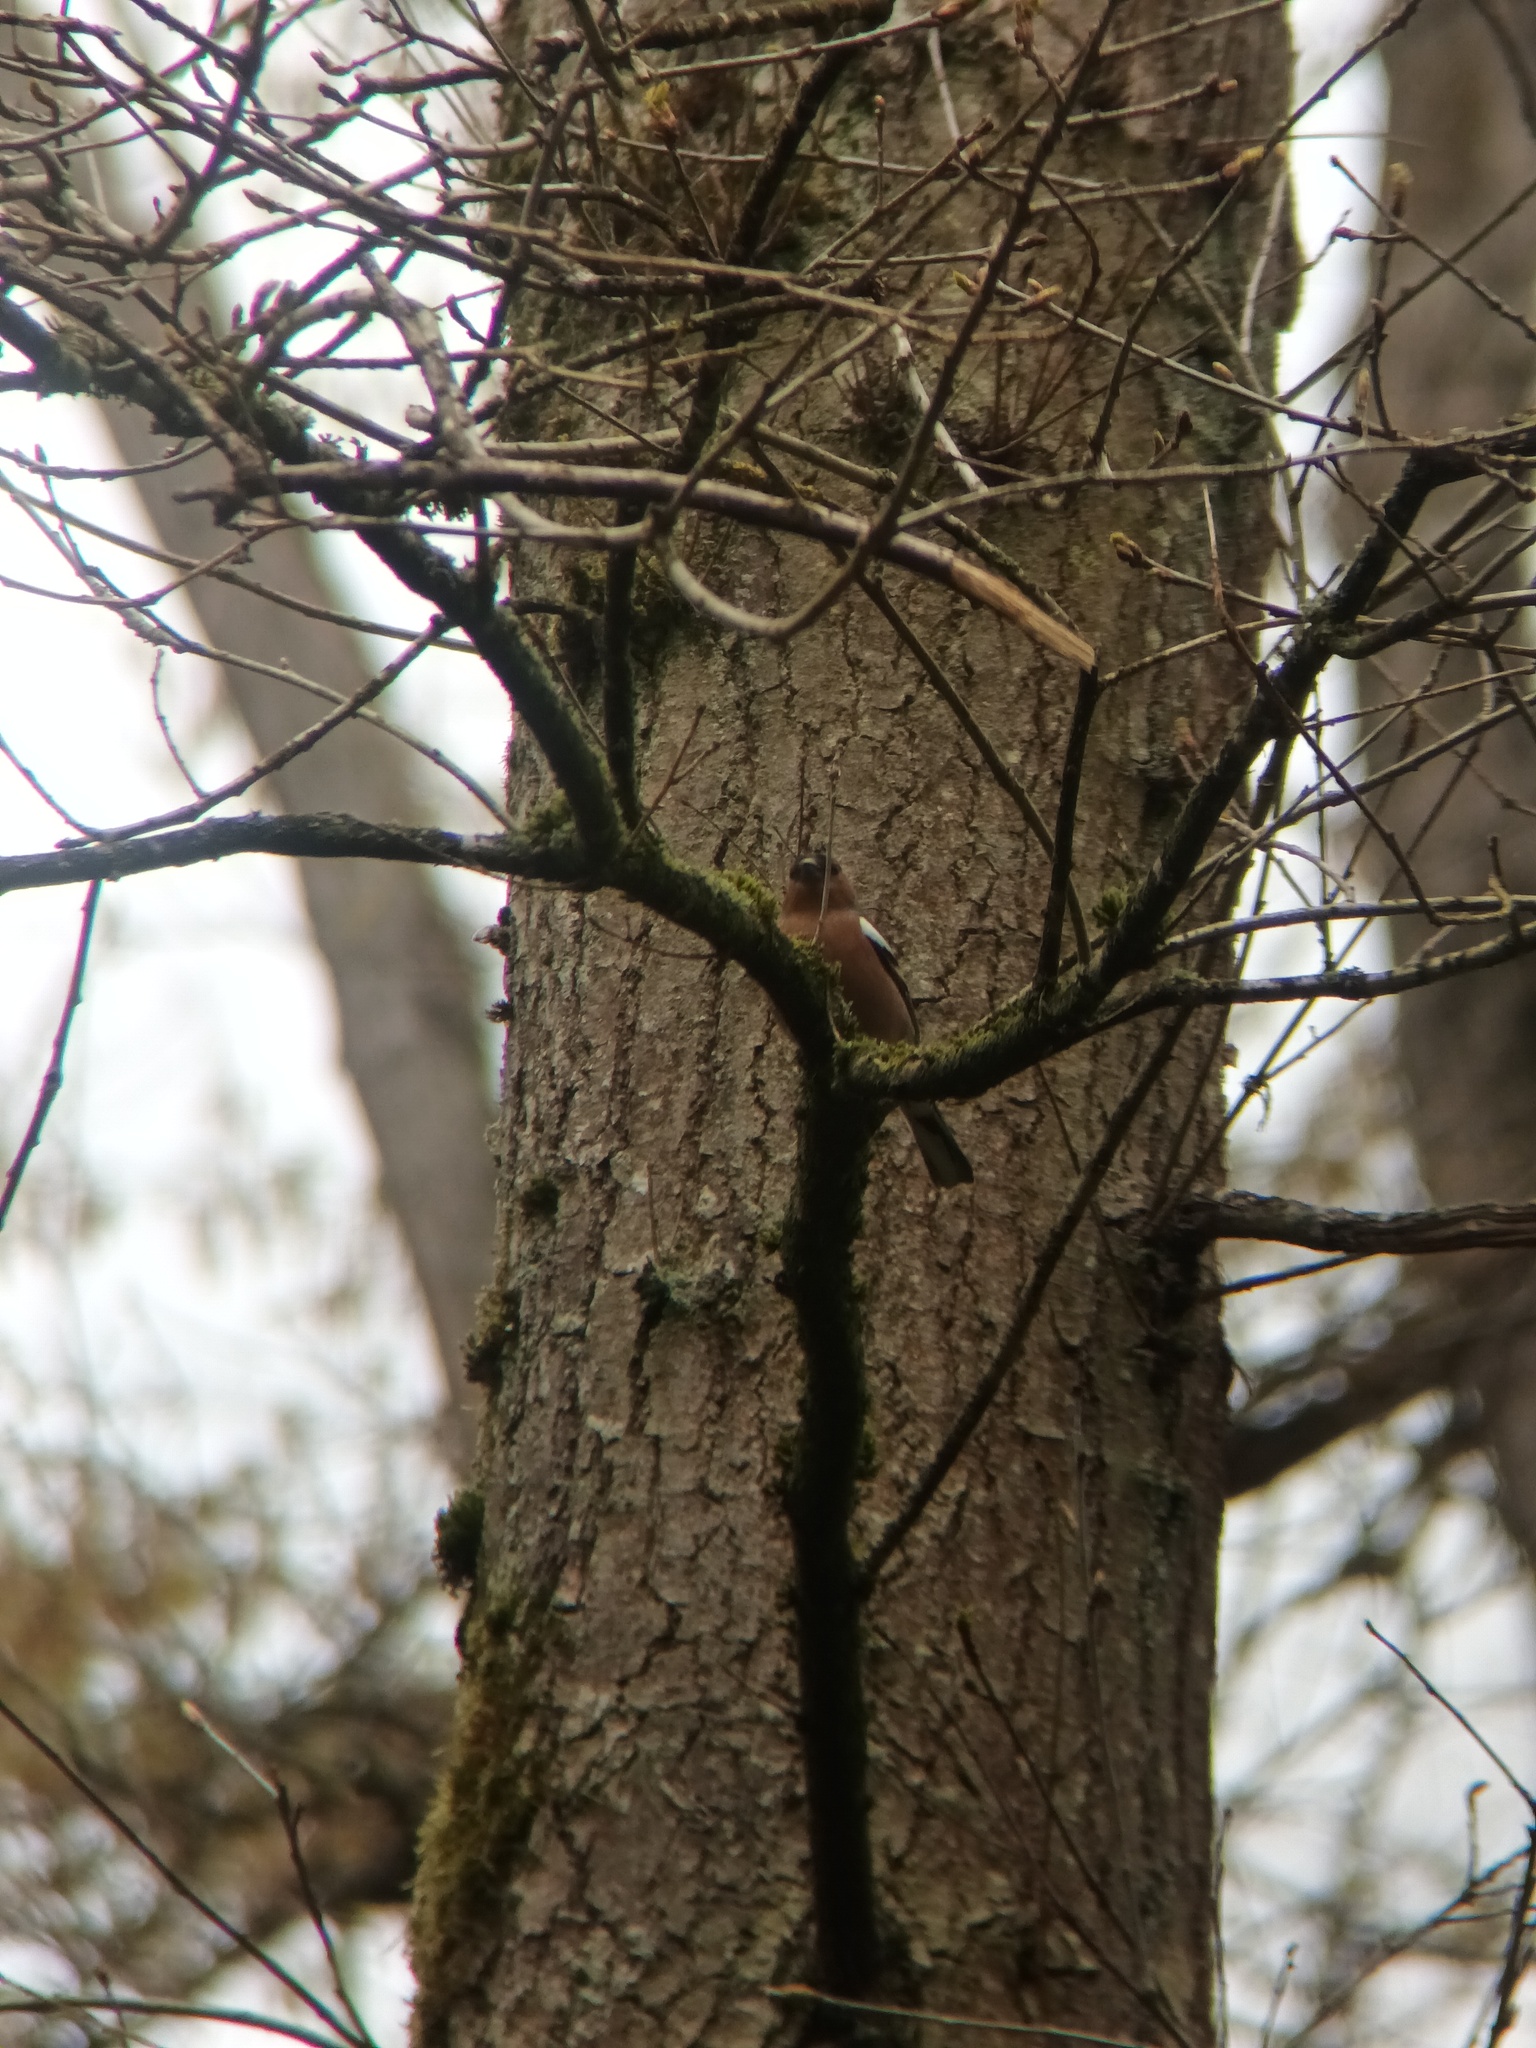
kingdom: Animalia
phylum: Chordata
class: Aves
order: Passeriformes
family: Fringillidae
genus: Fringilla
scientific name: Fringilla coelebs
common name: Common chaffinch
